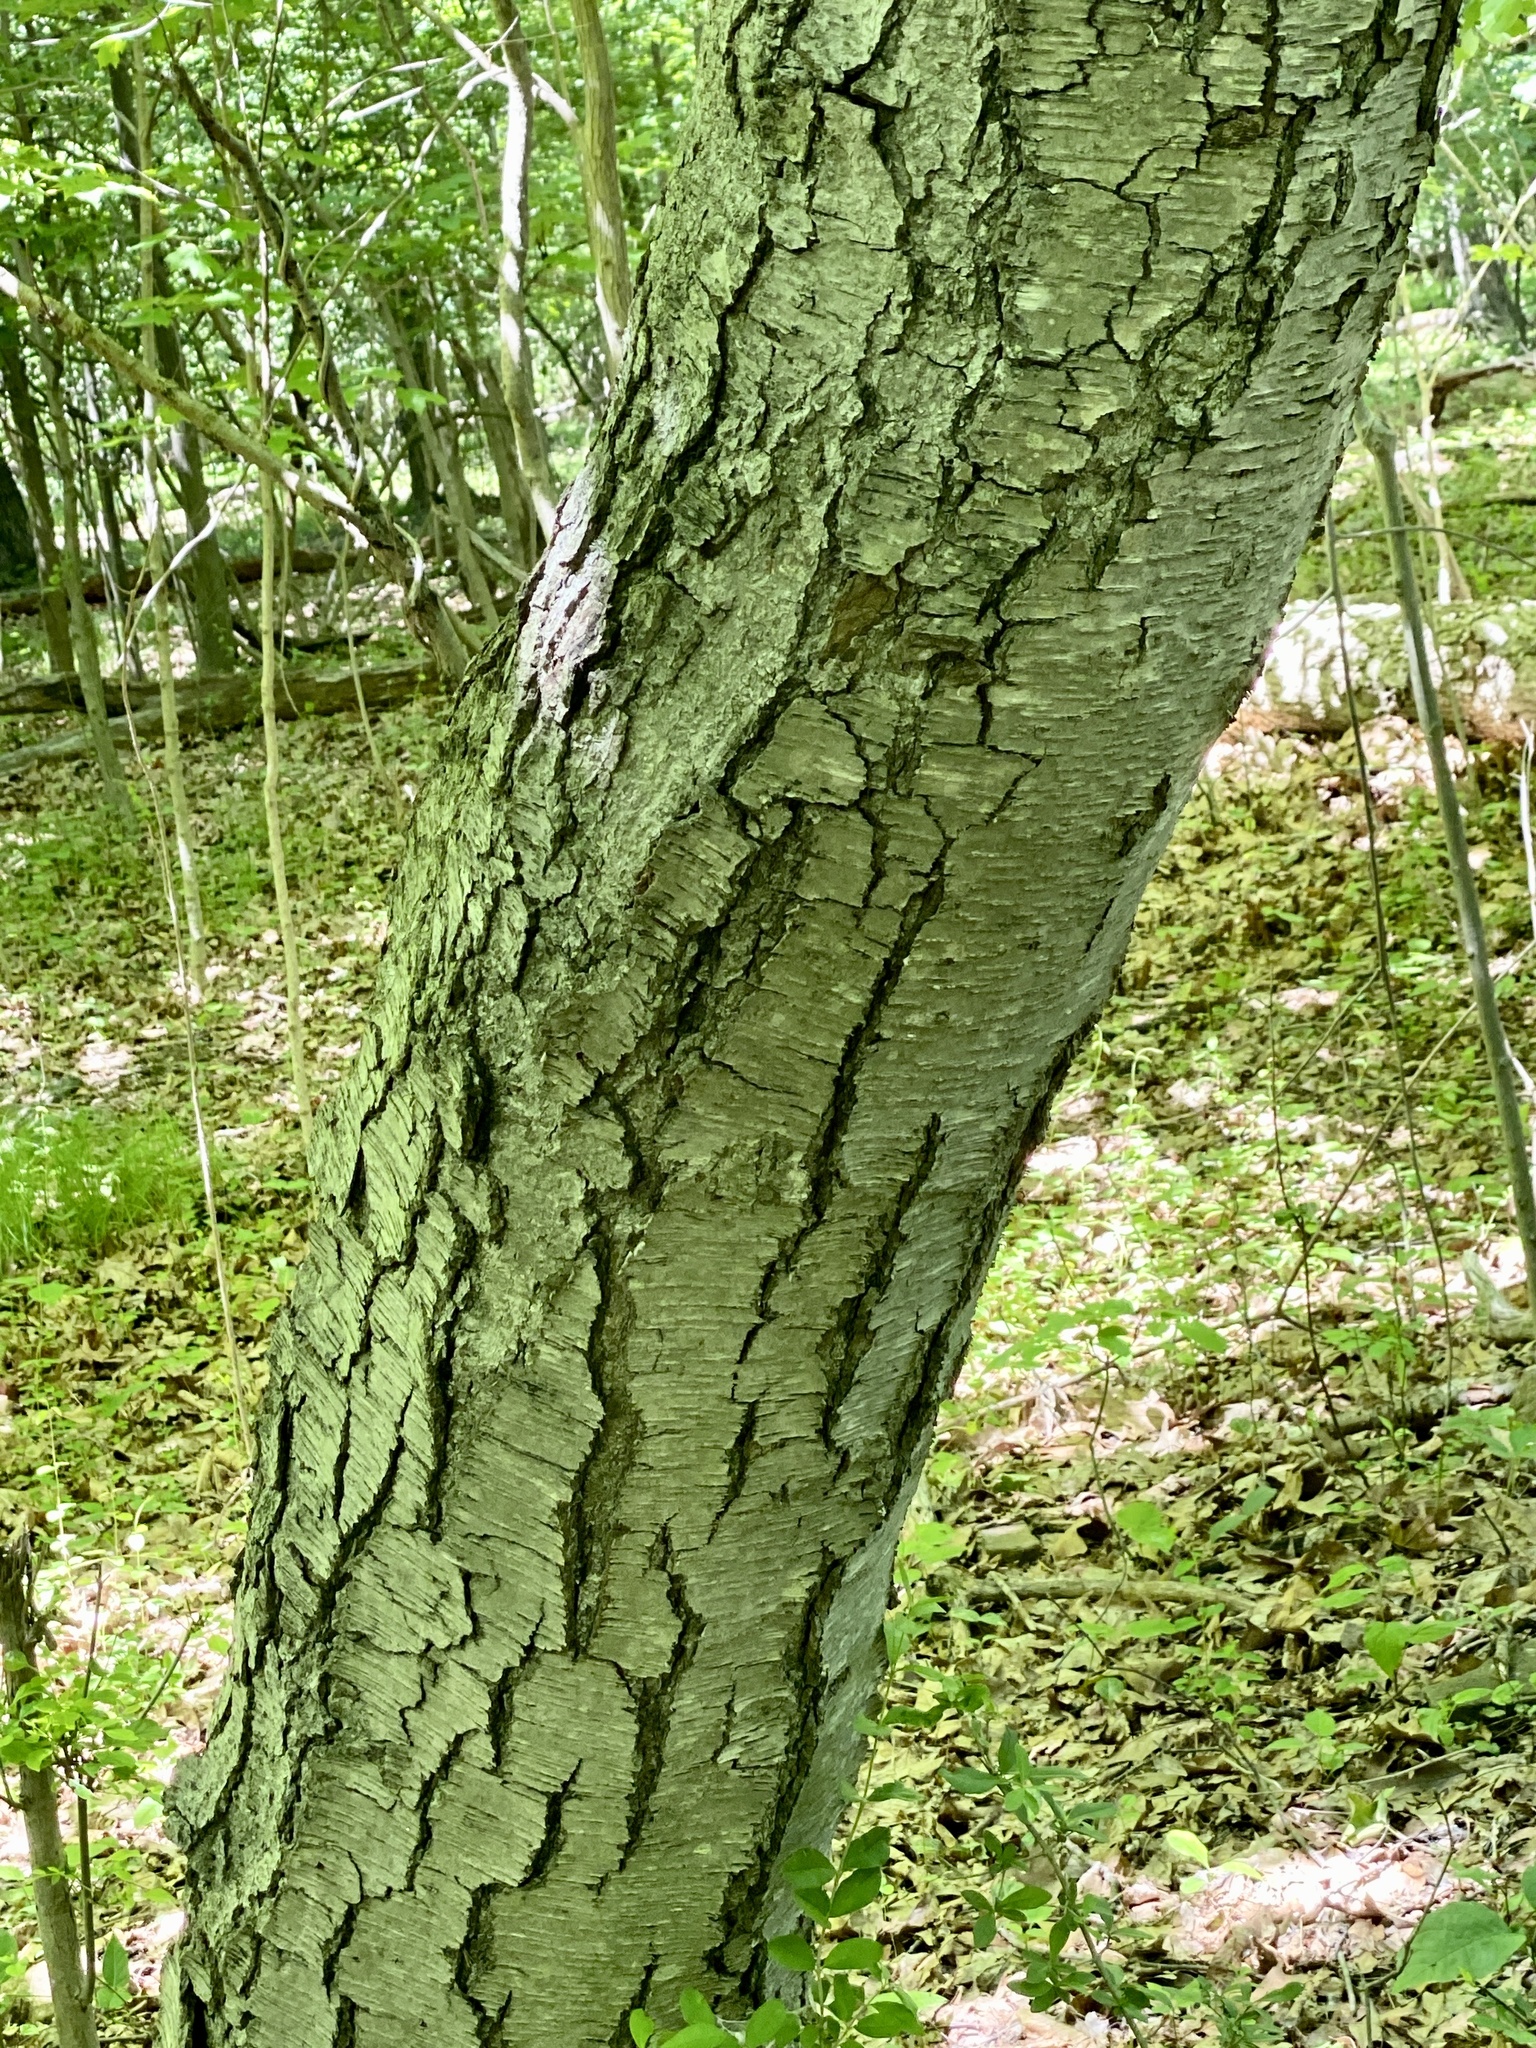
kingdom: Plantae
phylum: Tracheophyta
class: Magnoliopsida
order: Fagales
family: Betulaceae
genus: Betula
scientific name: Betula lenta
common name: Black birch
